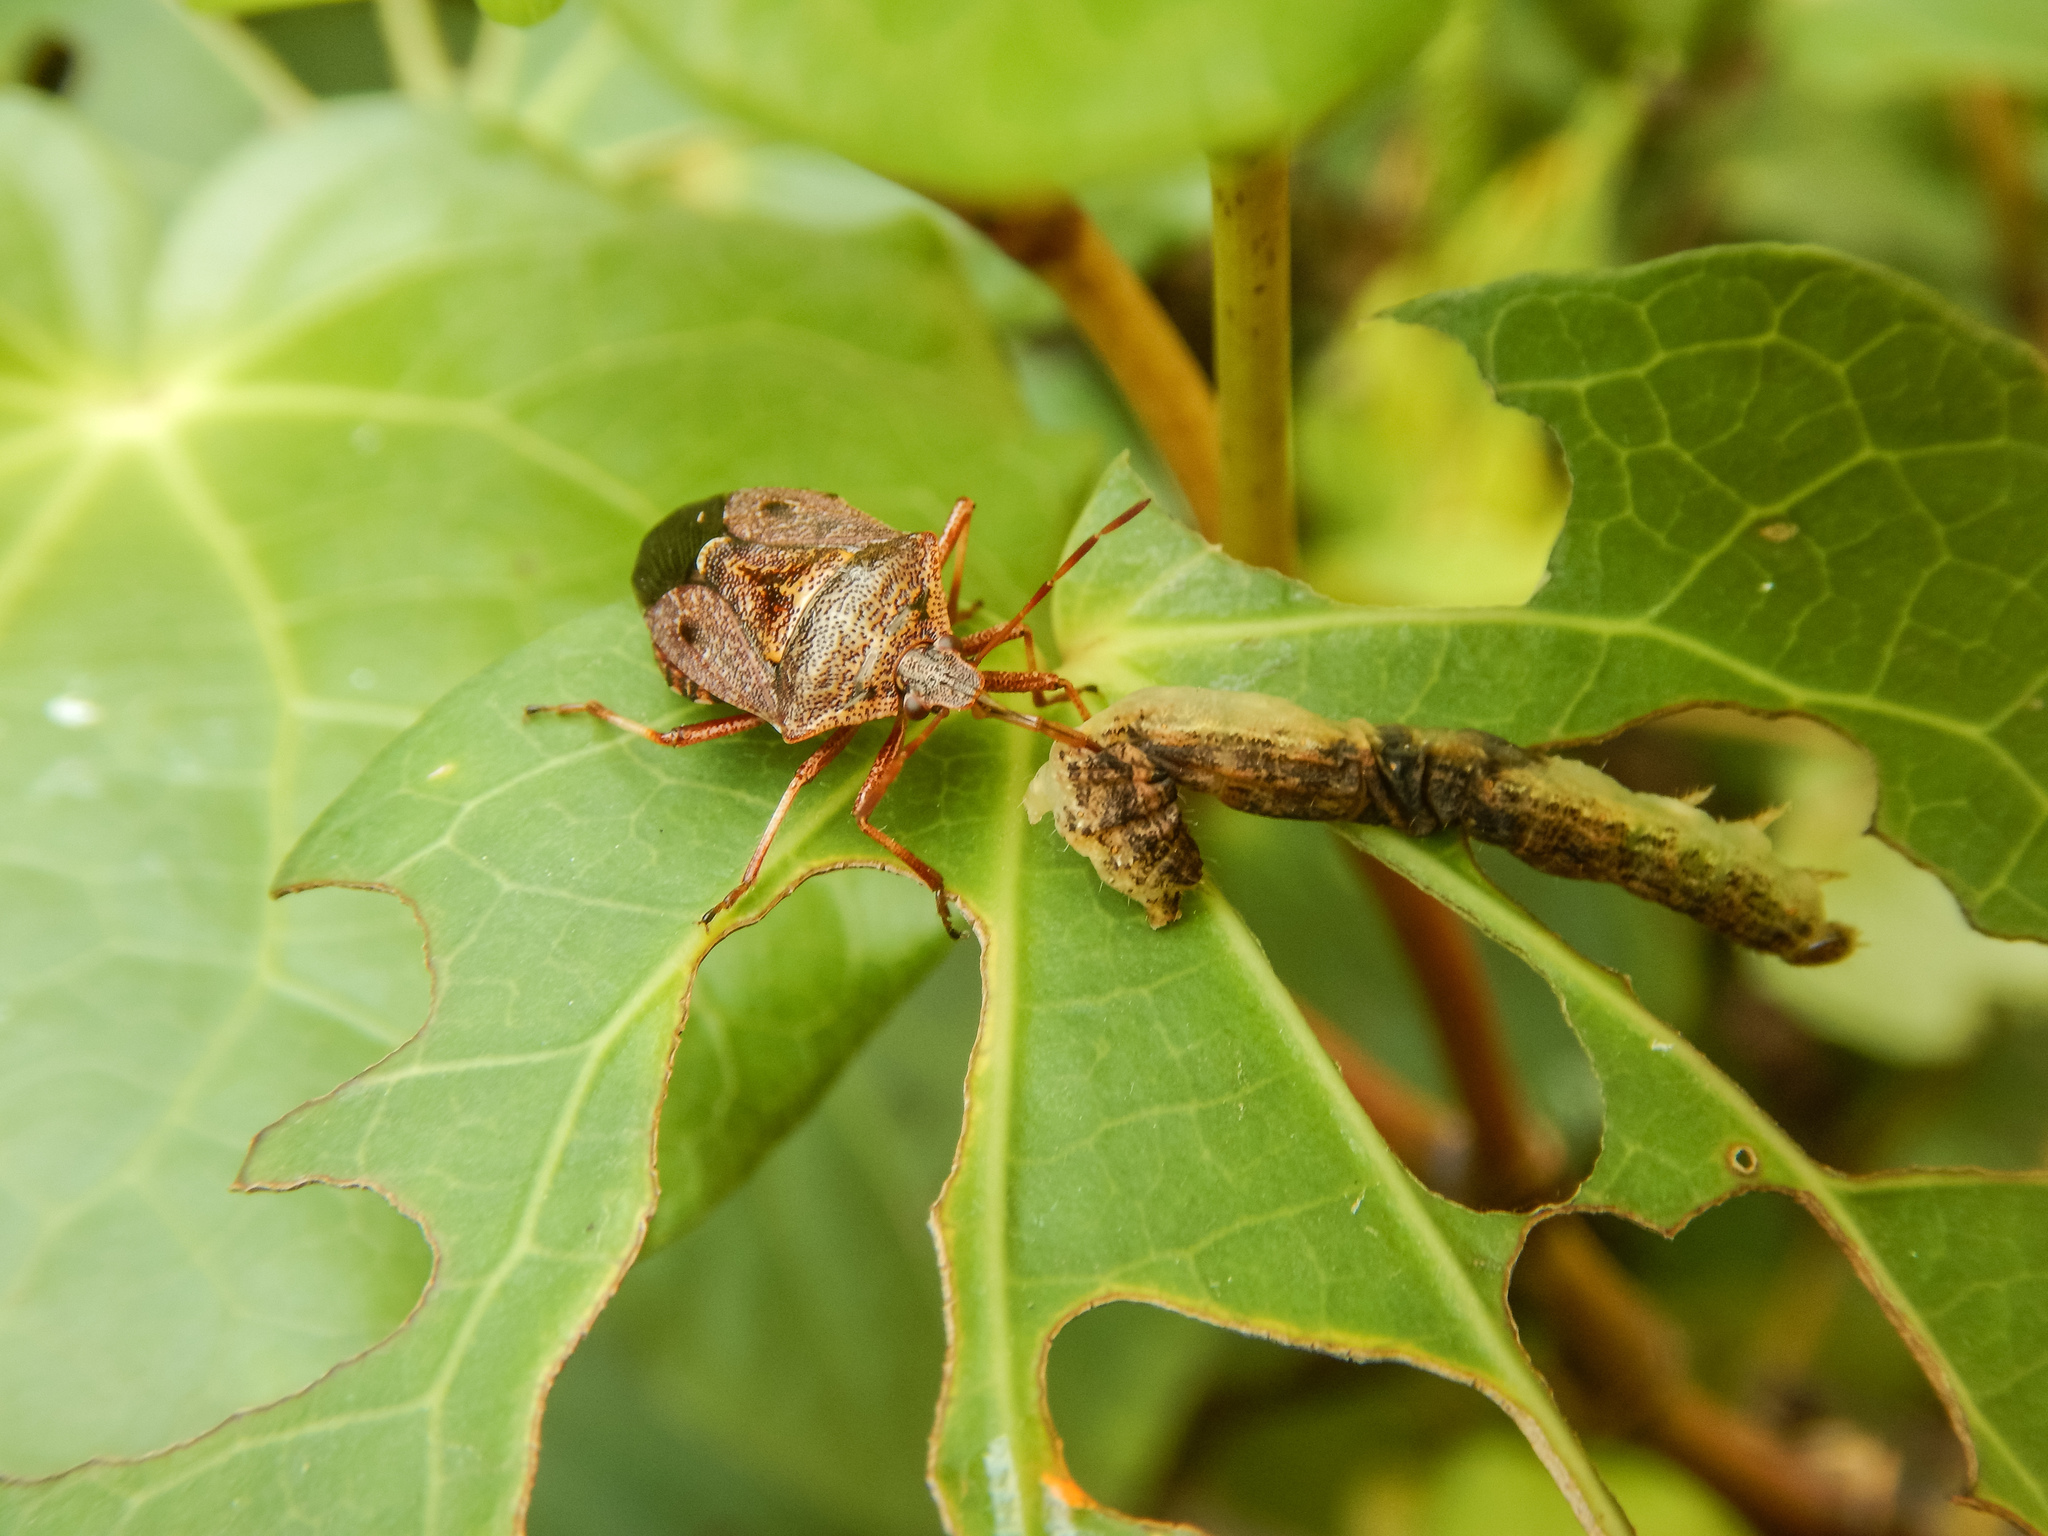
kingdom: Animalia
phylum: Arthropoda
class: Insecta
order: Hemiptera
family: Pentatomidae
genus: Cermatulus
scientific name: Cermatulus nasalis
